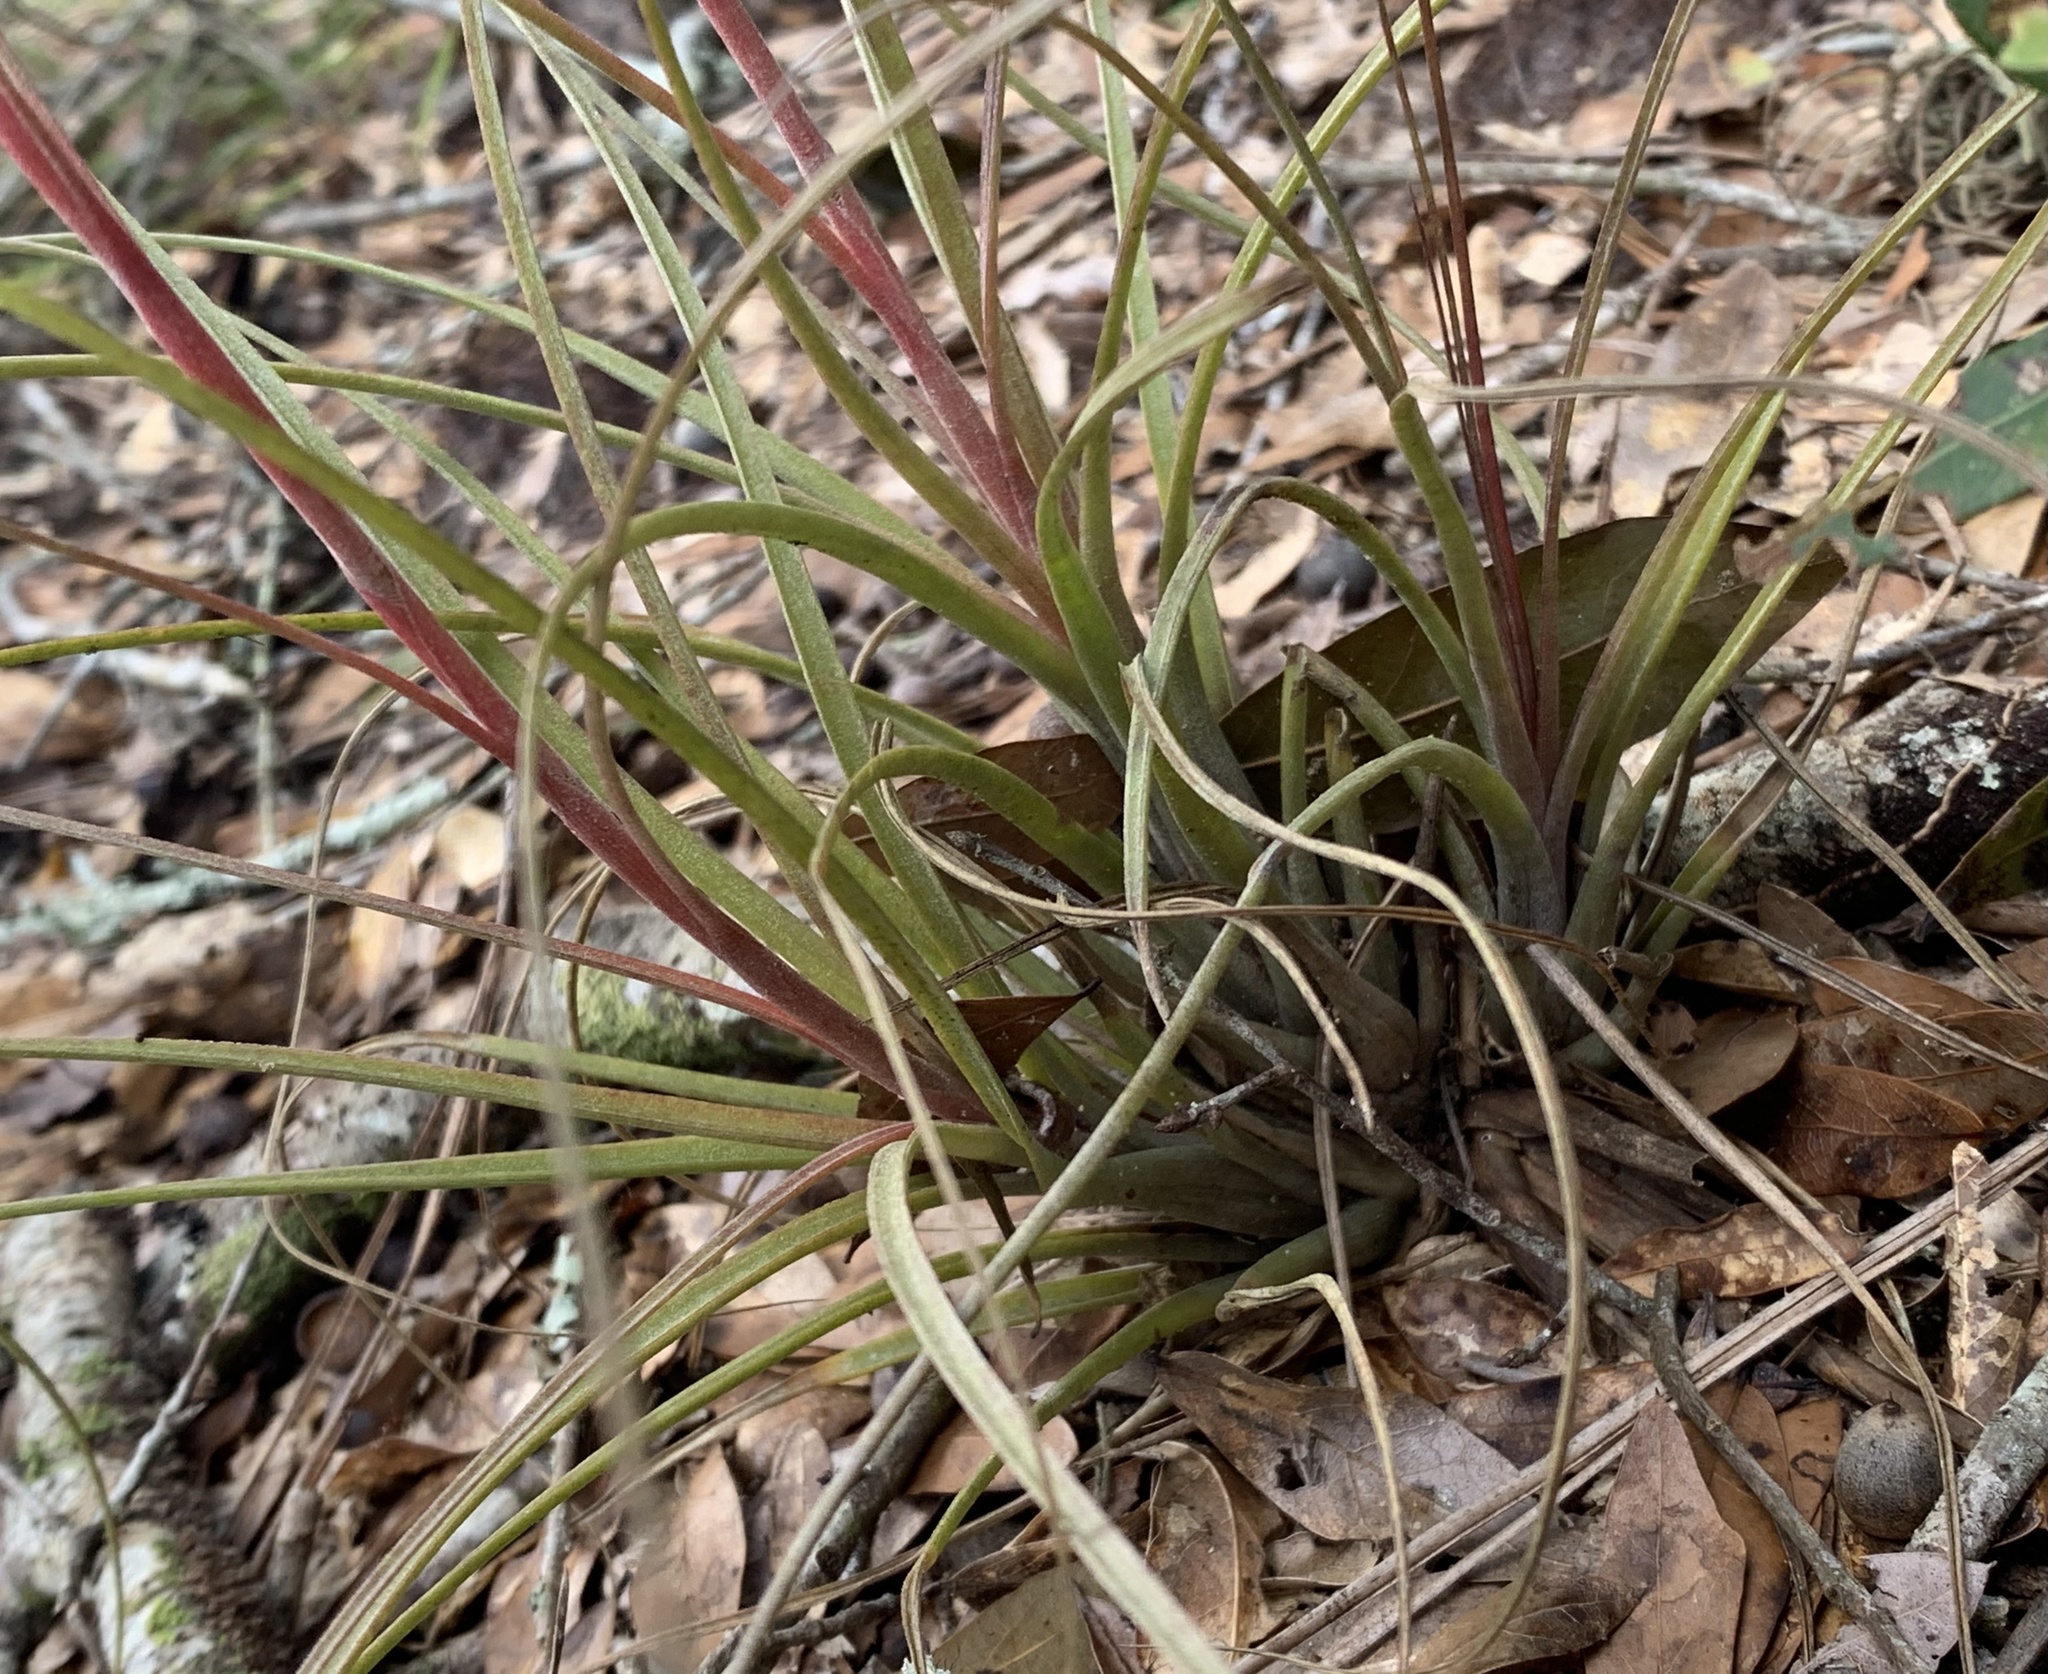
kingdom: Plantae
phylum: Tracheophyta
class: Liliopsida
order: Poales
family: Bromeliaceae
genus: Tillandsia
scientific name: Tillandsia simulata
